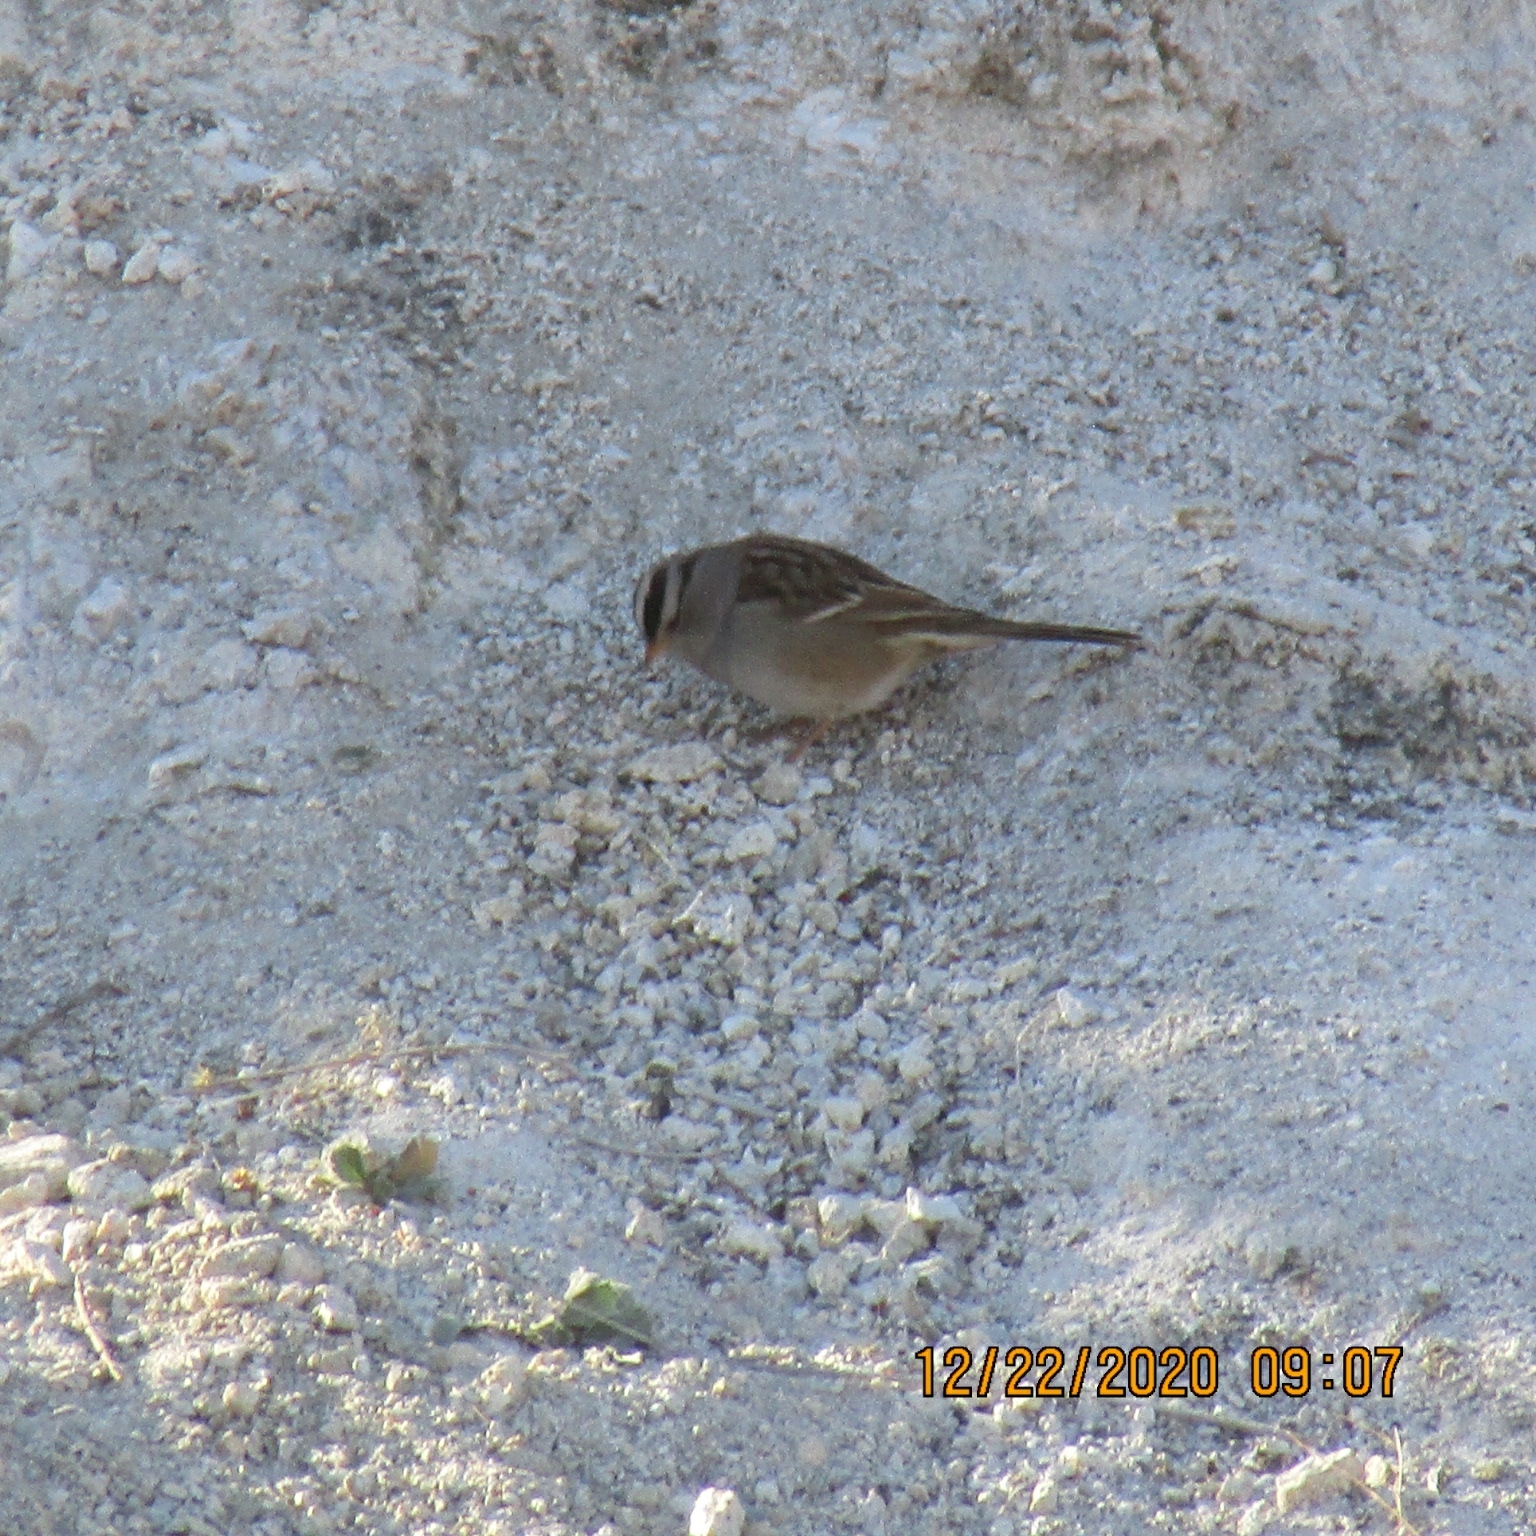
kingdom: Animalia
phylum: Chordata
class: Aves
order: Passeriformes
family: Passerellidae
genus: Zonotrichia
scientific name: Zonotrichia leucophrys
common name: White-crowned sparrow
